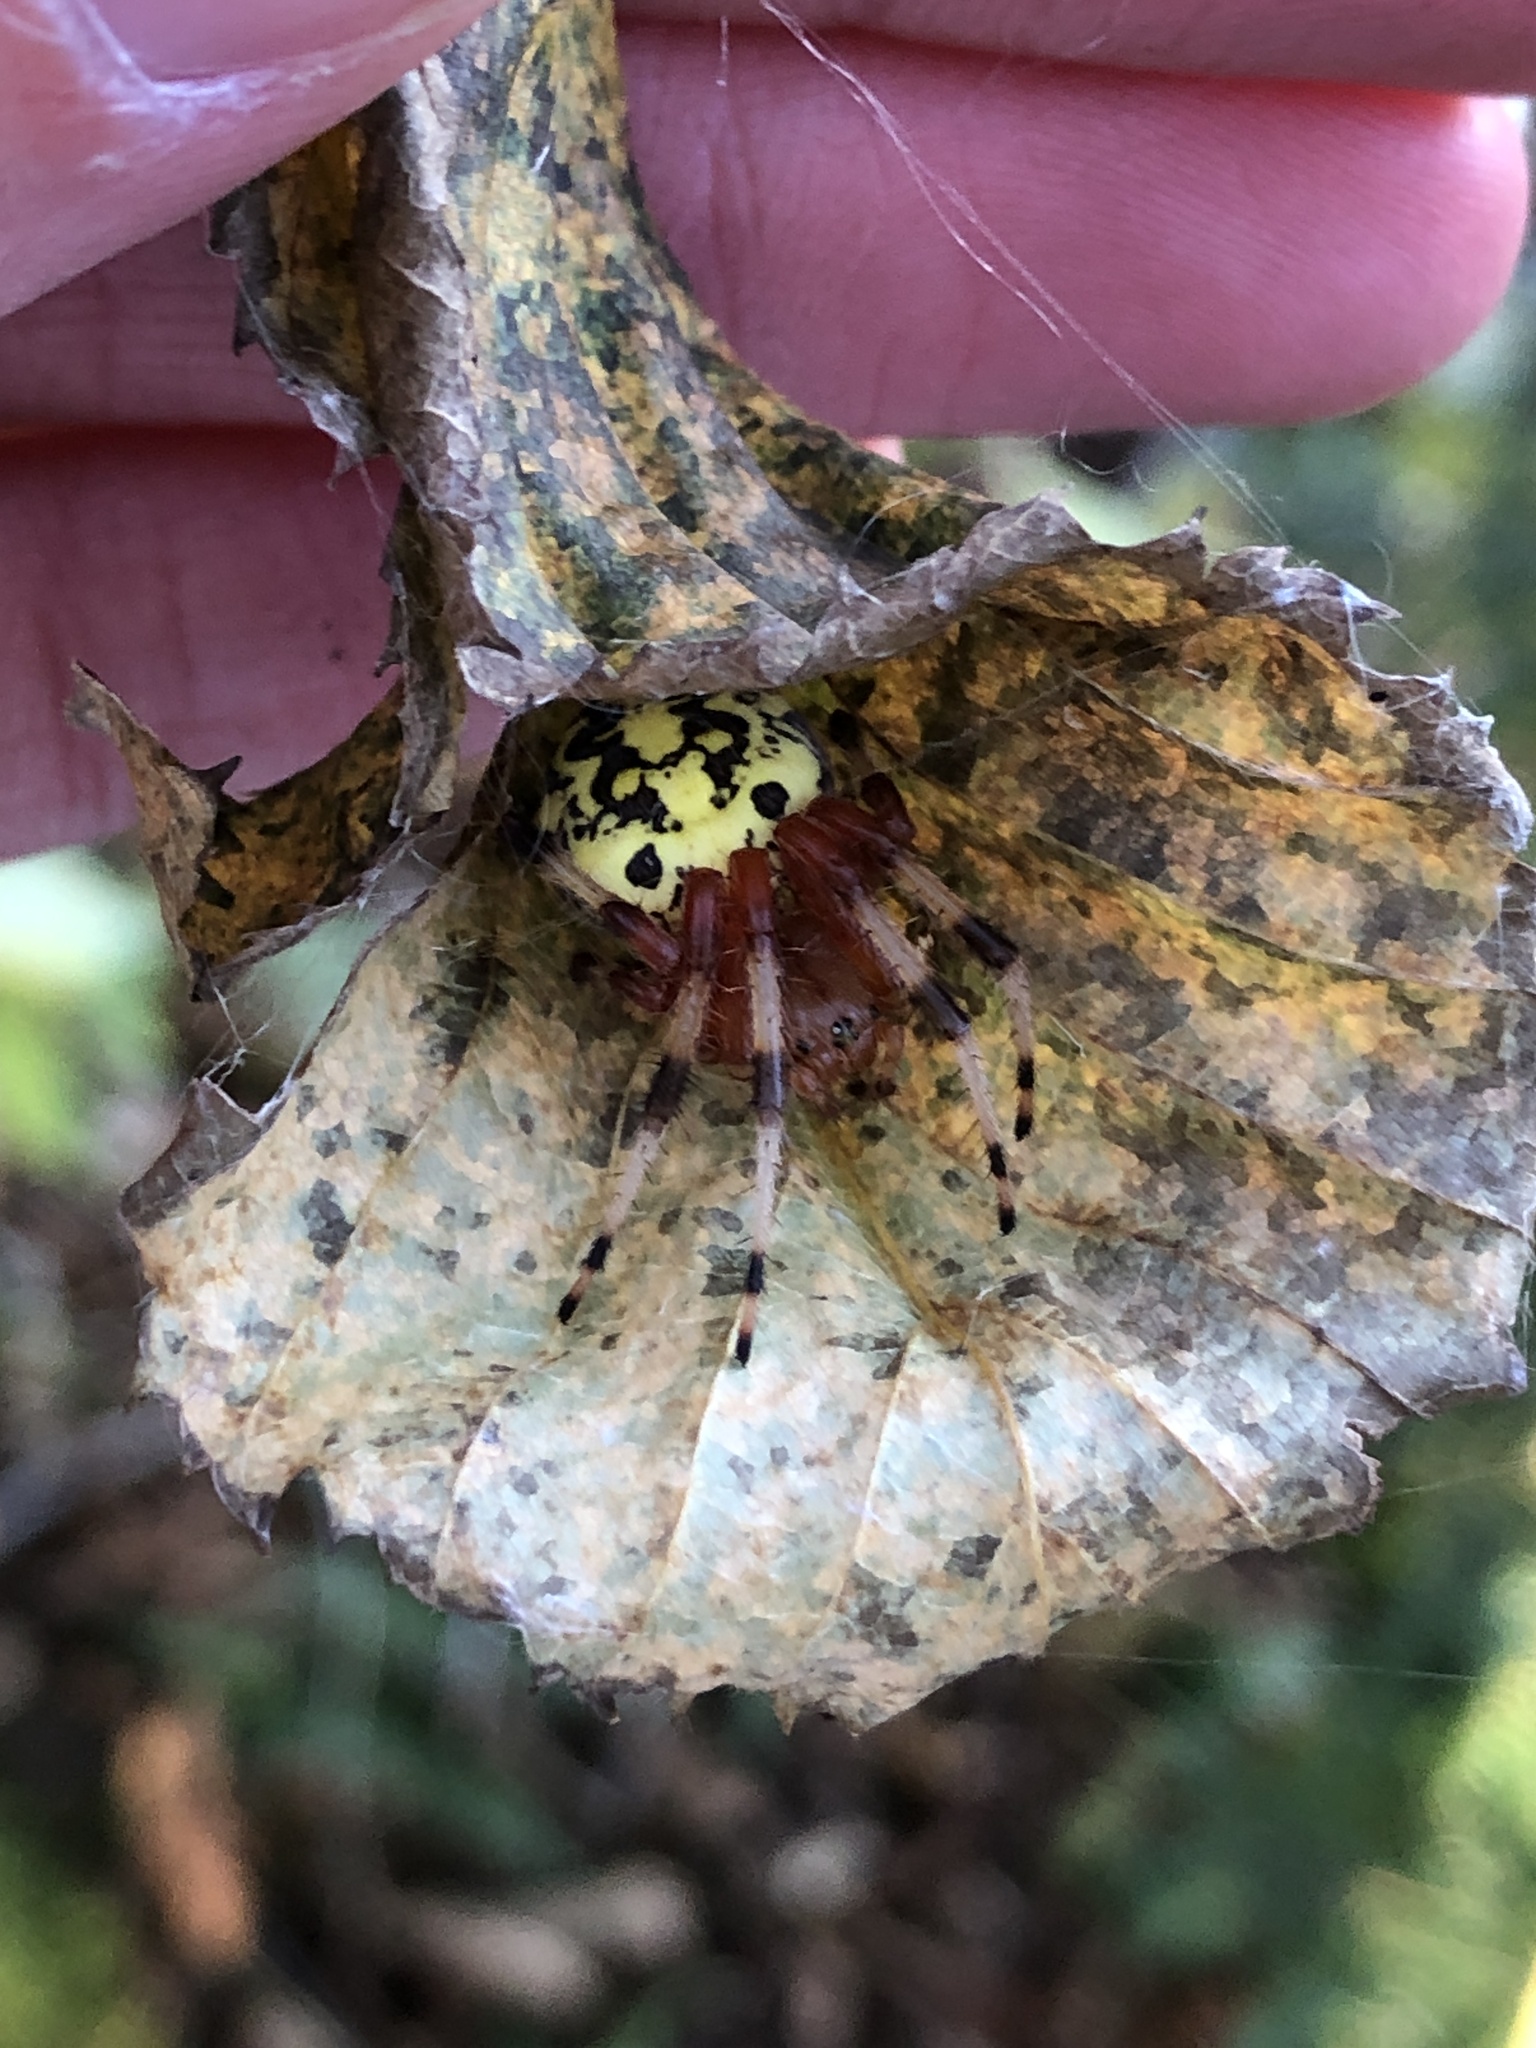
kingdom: Animalia
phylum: Arthropoda
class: Arachnida
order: Araneae
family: Araneidae
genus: Araneus
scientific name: Araneus marmoreus
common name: Marbled orbweaver
